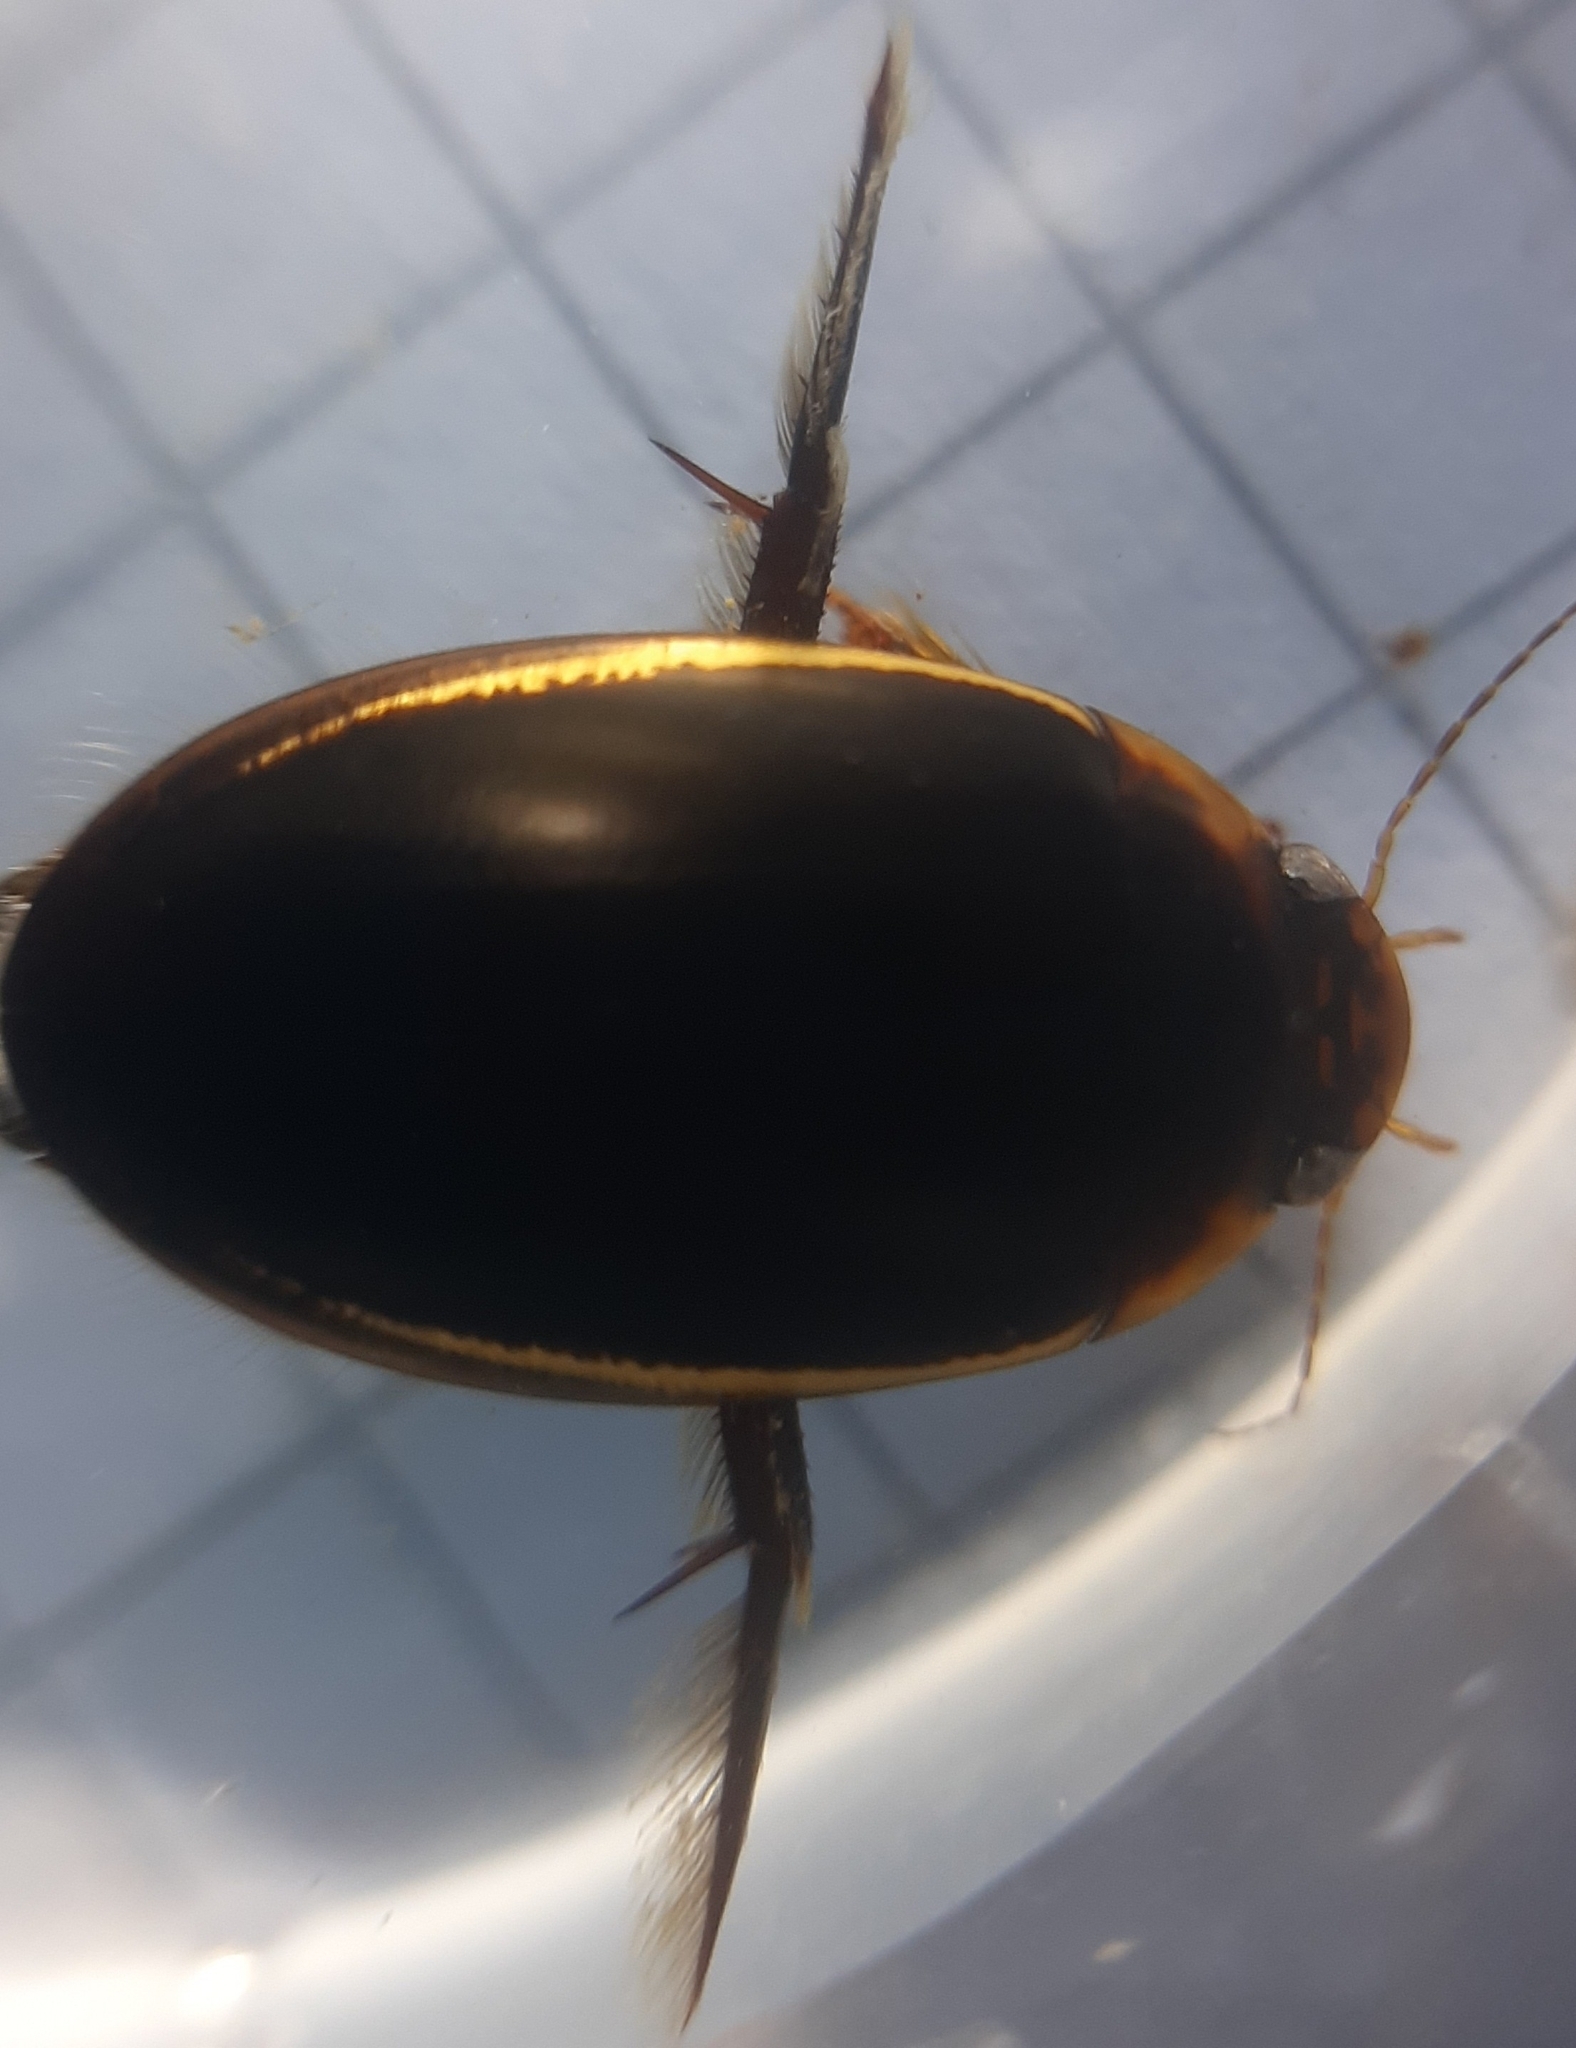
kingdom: Animalia
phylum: Arthropoda
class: Insecta
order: Coleoptera
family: Dytiscidae
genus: Hydaticus
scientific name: Hydaticus seminiger
